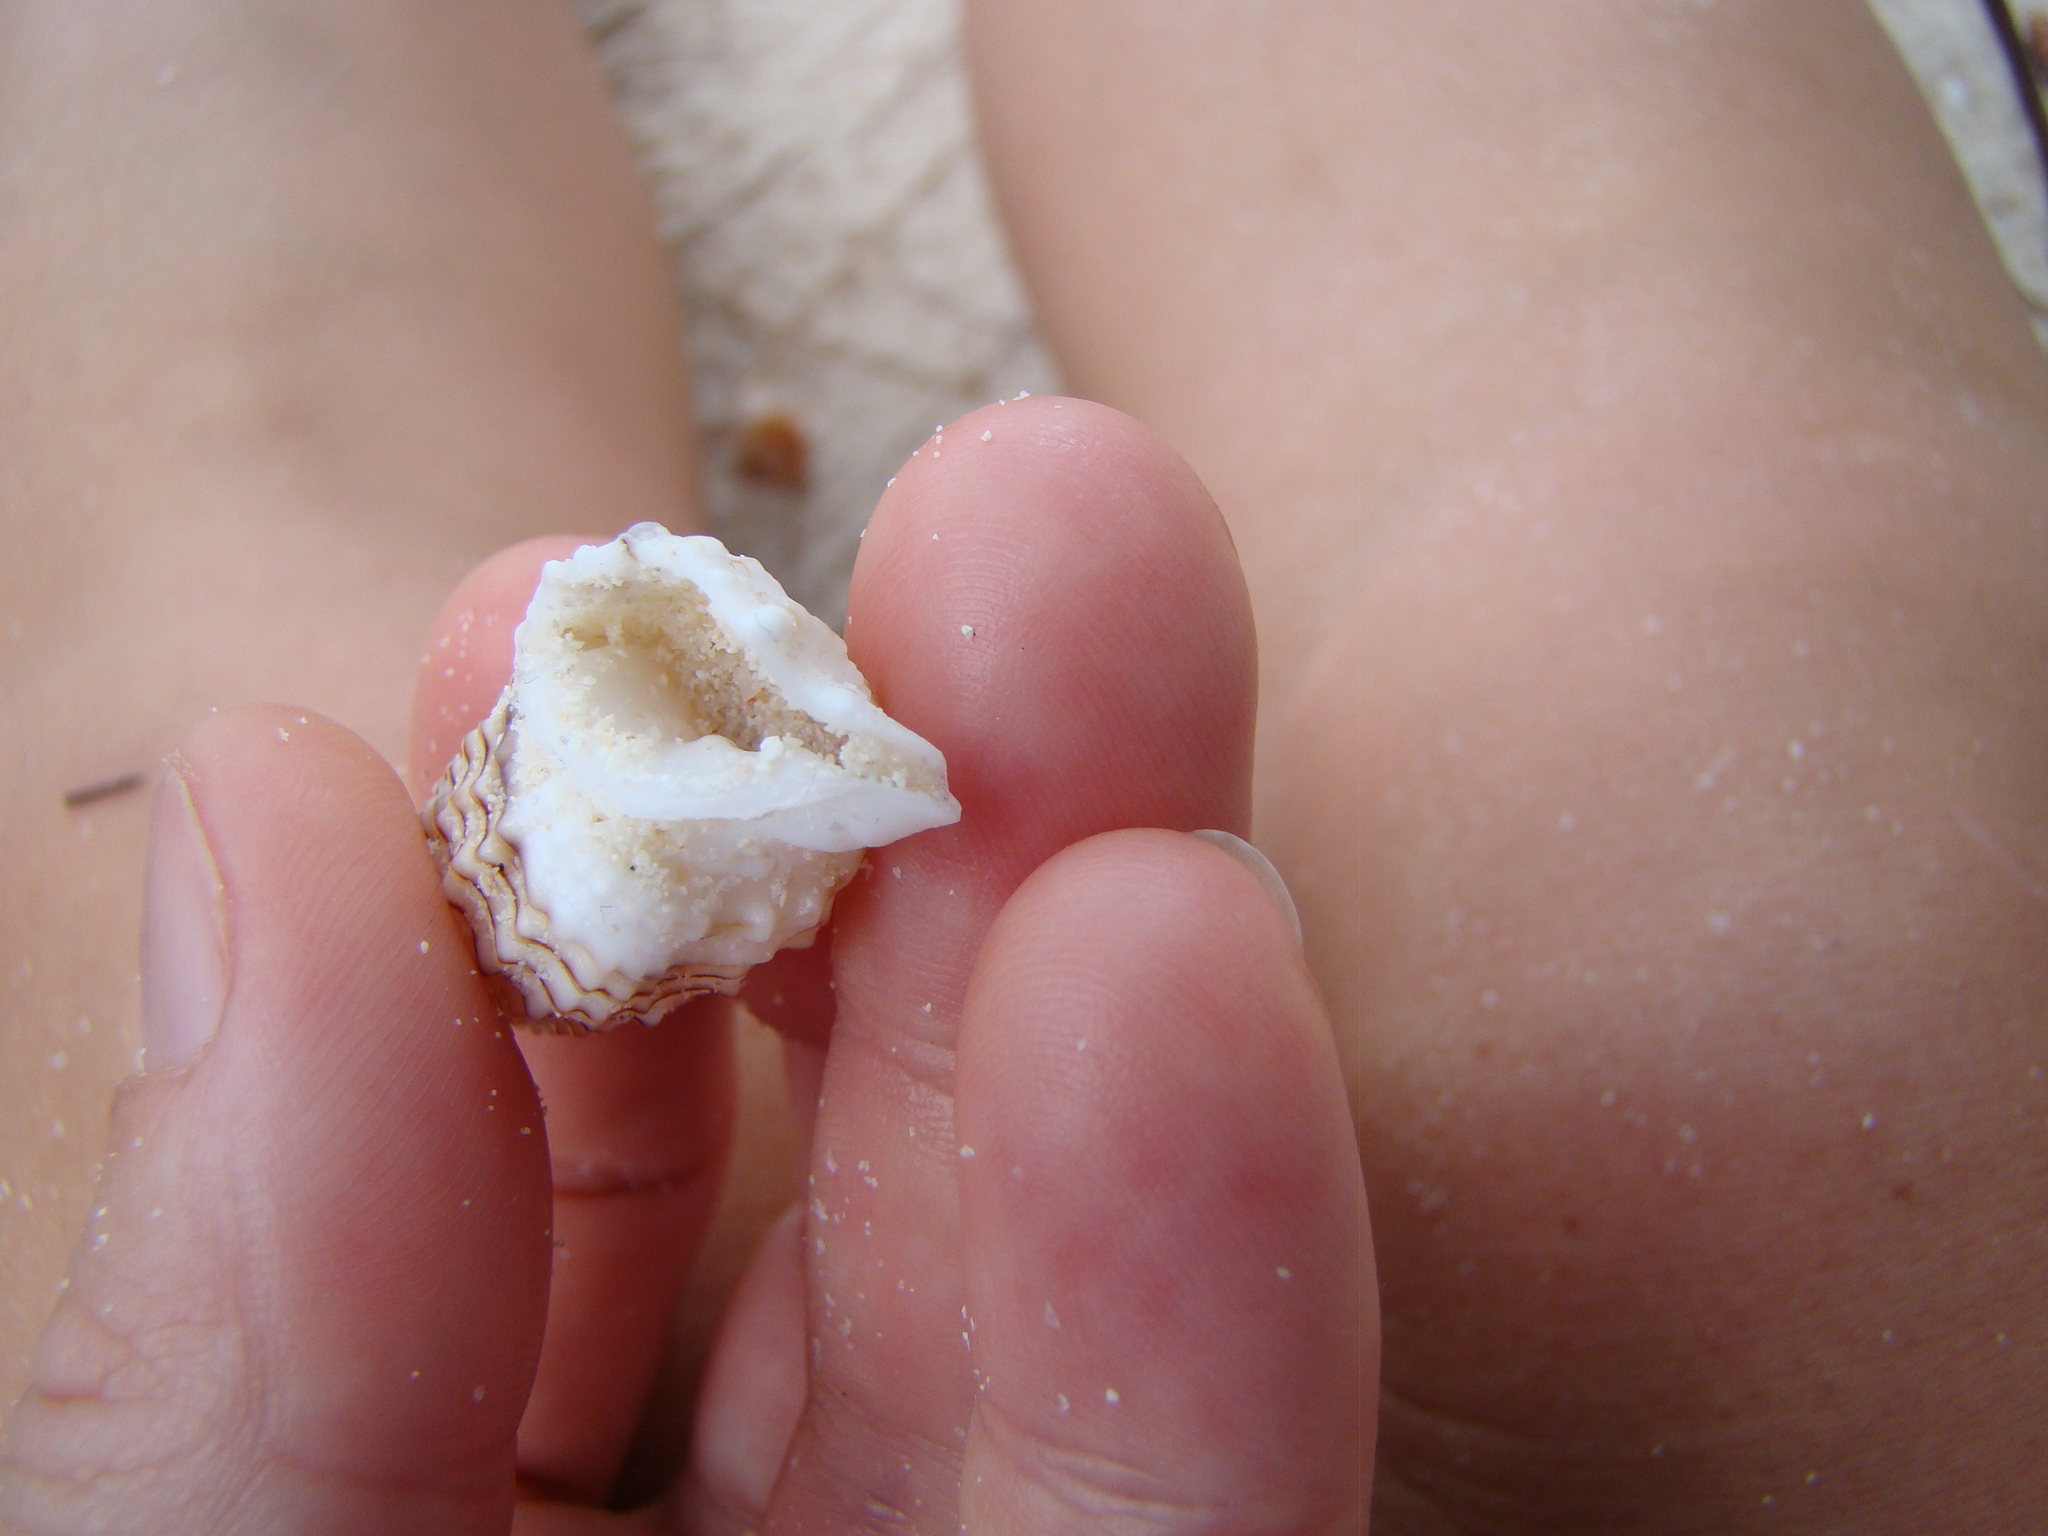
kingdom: Animalia
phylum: Mollusca
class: Gastropoda
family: Cerithiidae
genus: Rhinoclavis
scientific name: Rhinoclavis aspera
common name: Rough horn
